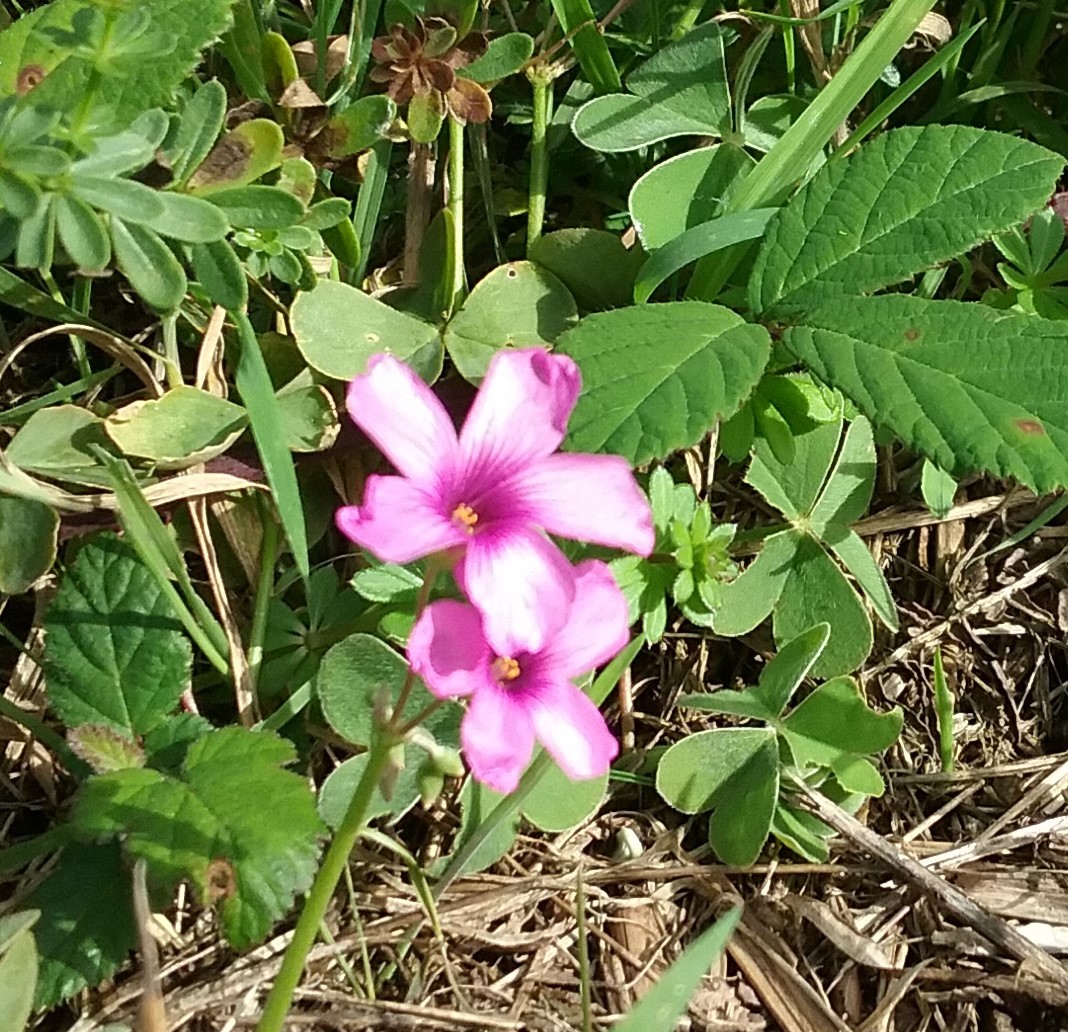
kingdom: Plantae
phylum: Tracheophyta
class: Magnoliopsida
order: Oxalidales
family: Oxalidaceae
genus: Oxalis
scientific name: Oxalis articulata
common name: Pink-sorrel
